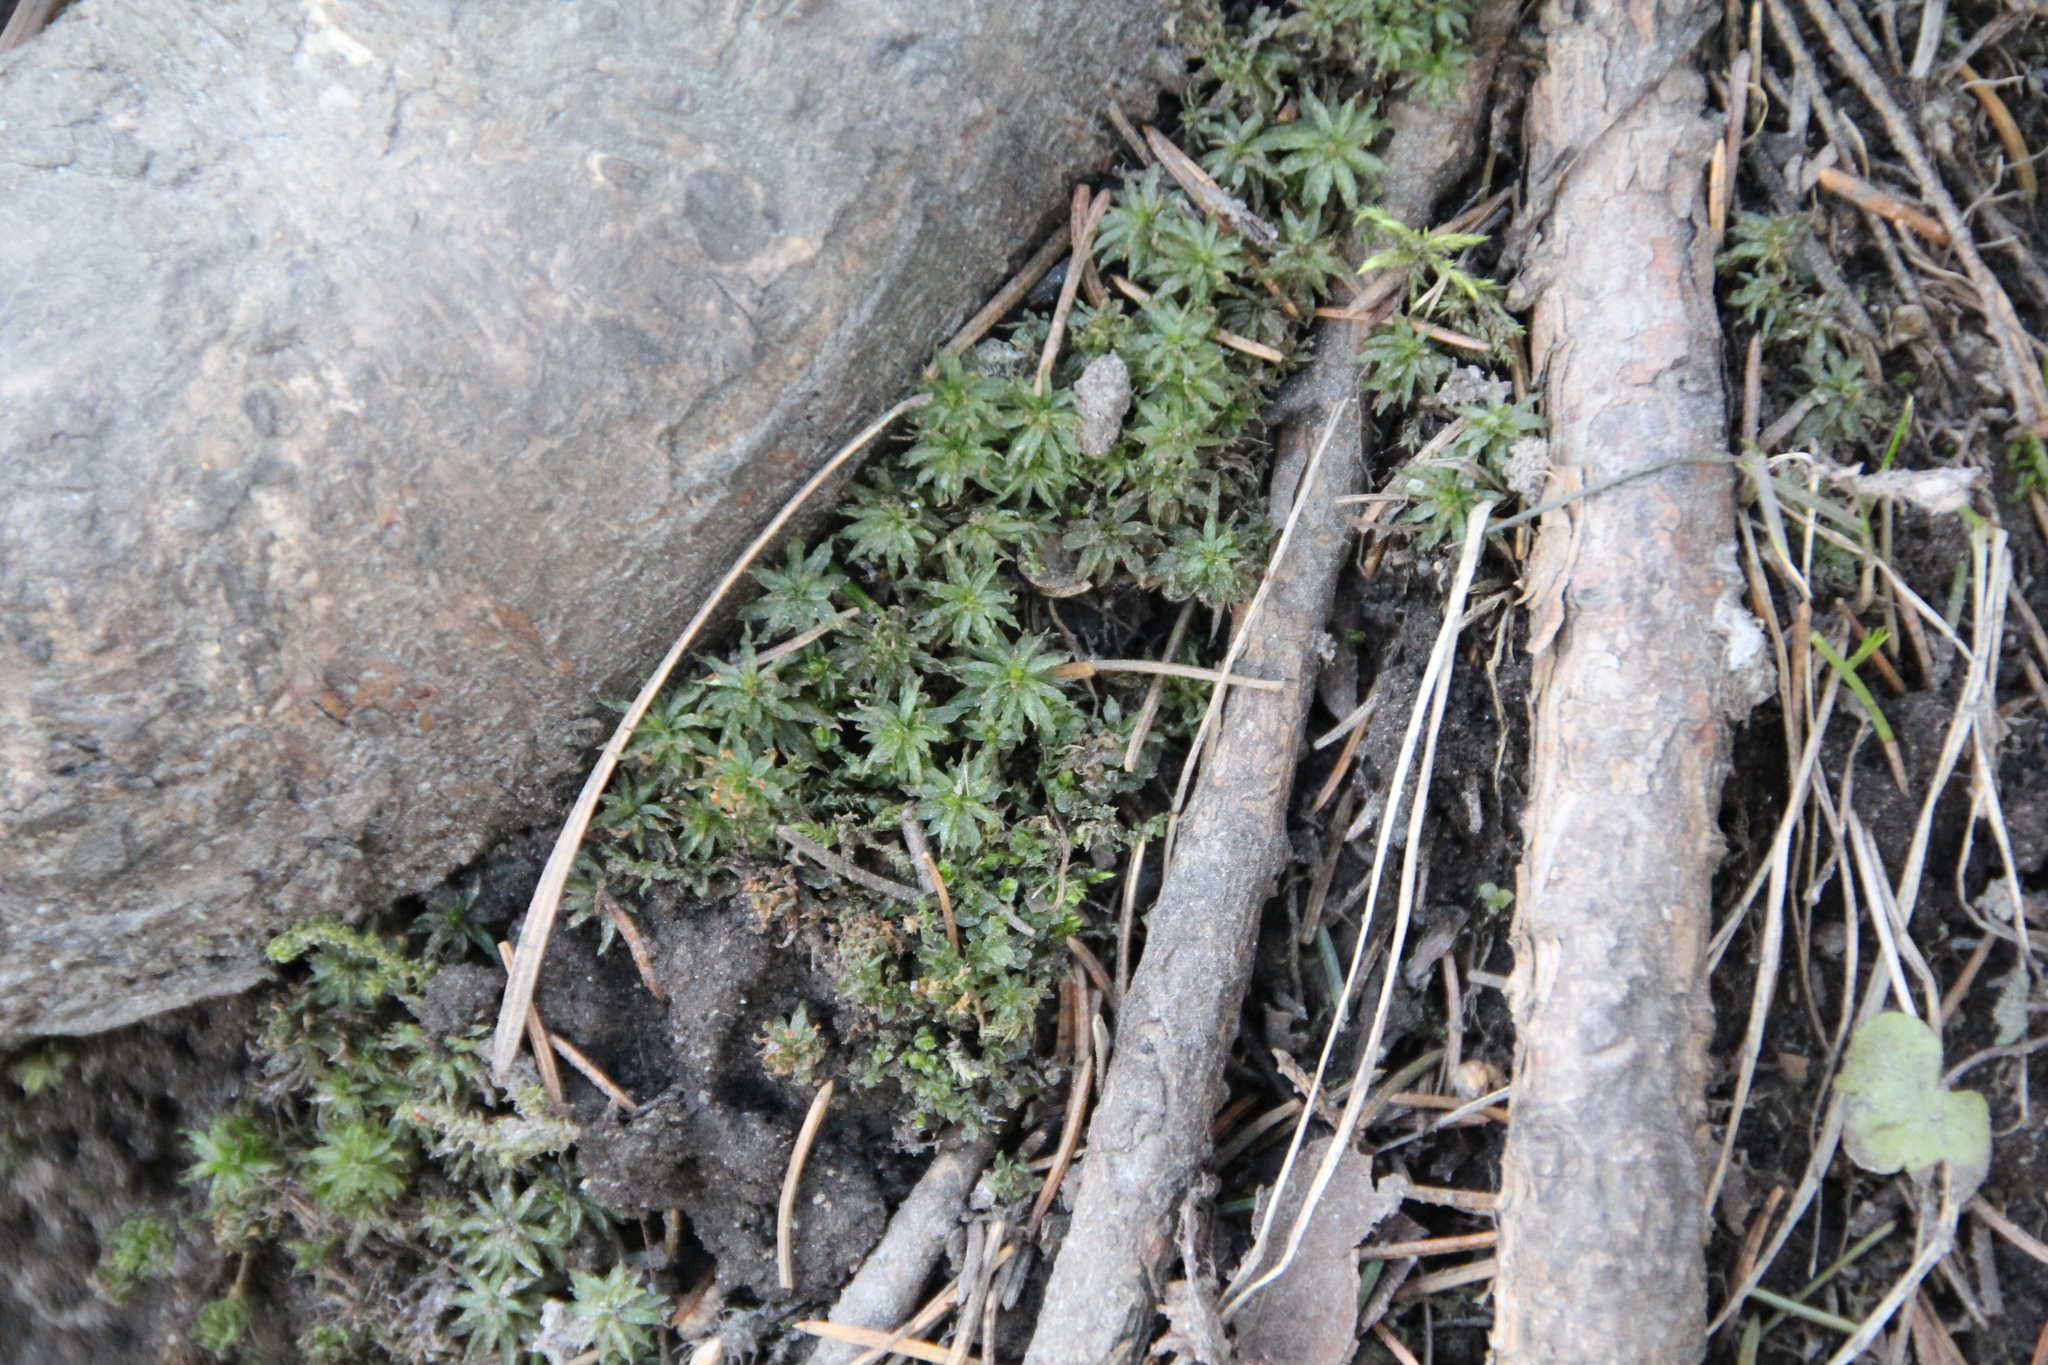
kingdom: Plantae
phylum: Bryophyta
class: Polytrichopsida
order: Polytrichales
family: Polytrichaceae
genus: Atrichum
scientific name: Atrichum undulatum
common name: Common smoothcap
